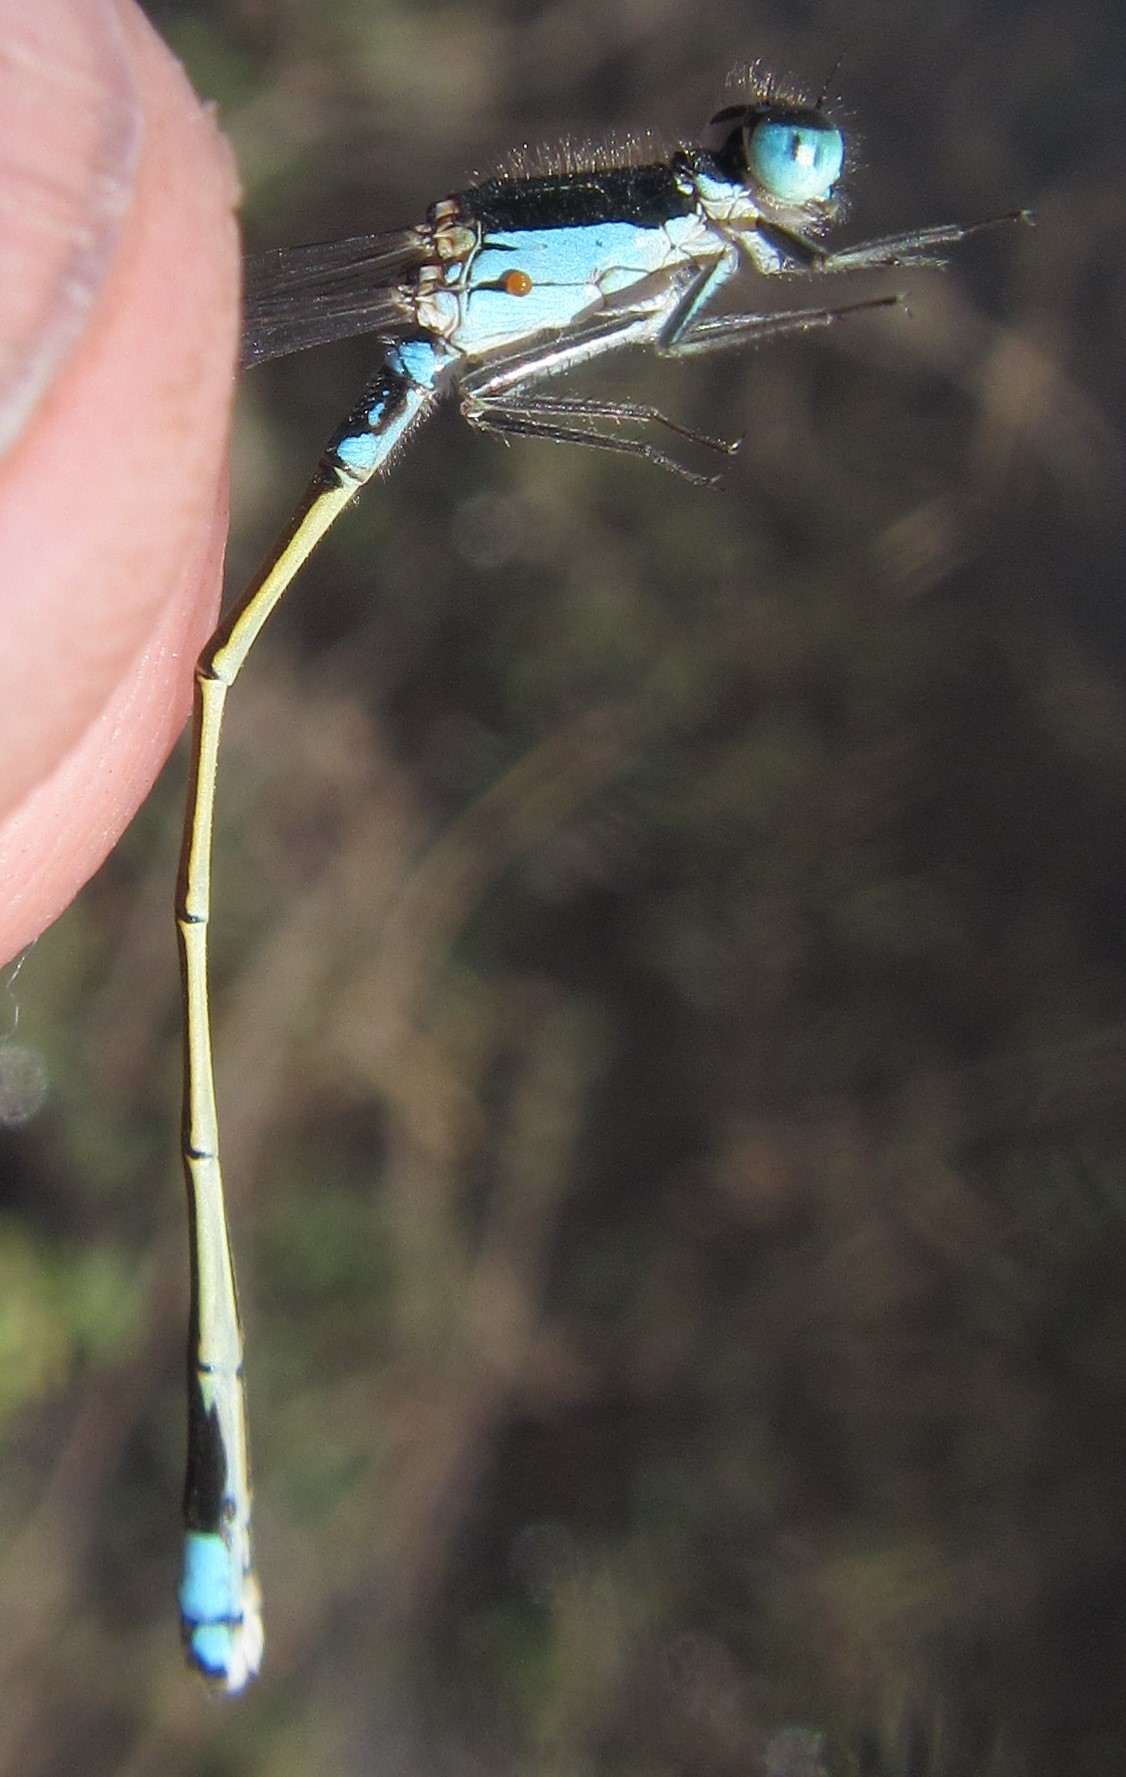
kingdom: Animalia
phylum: Arthropoda
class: Insecta
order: Odonata
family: Coenagrionidae
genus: Ischnura
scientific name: Ischnura senegalensis
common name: Tropical bluetail
